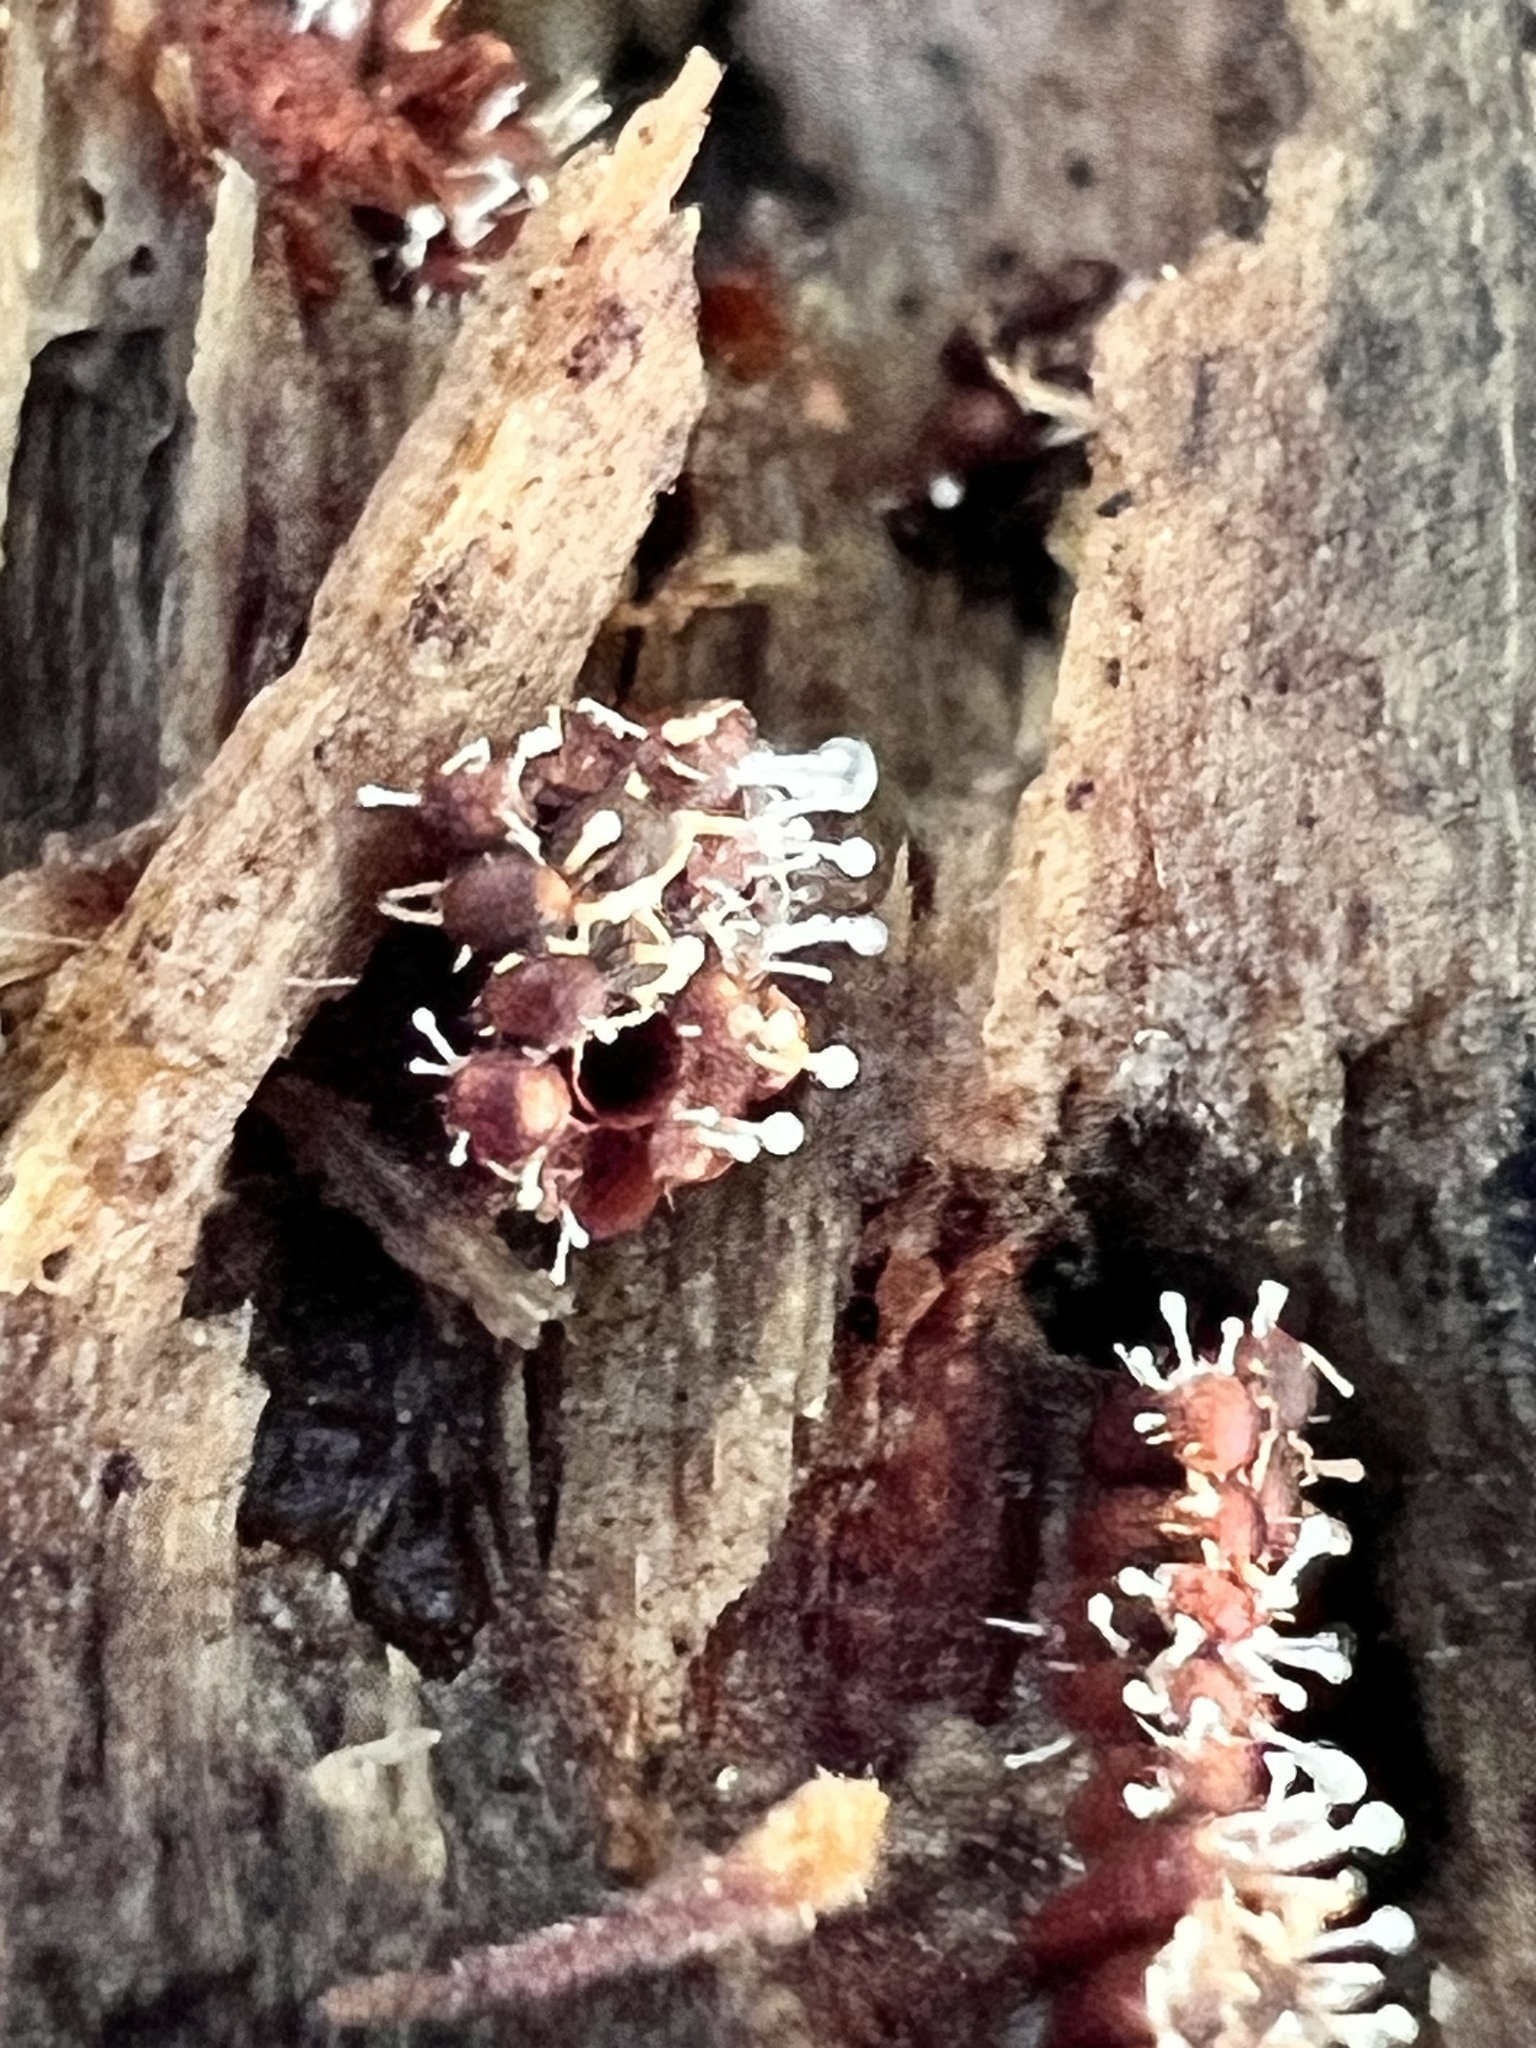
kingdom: Fungi
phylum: Ascomycota
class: Sordariomycetes
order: Hypocreales
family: Ophiocordycipitaceae
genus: Polycephalomyces
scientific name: Polycephalomyces tomentosus
